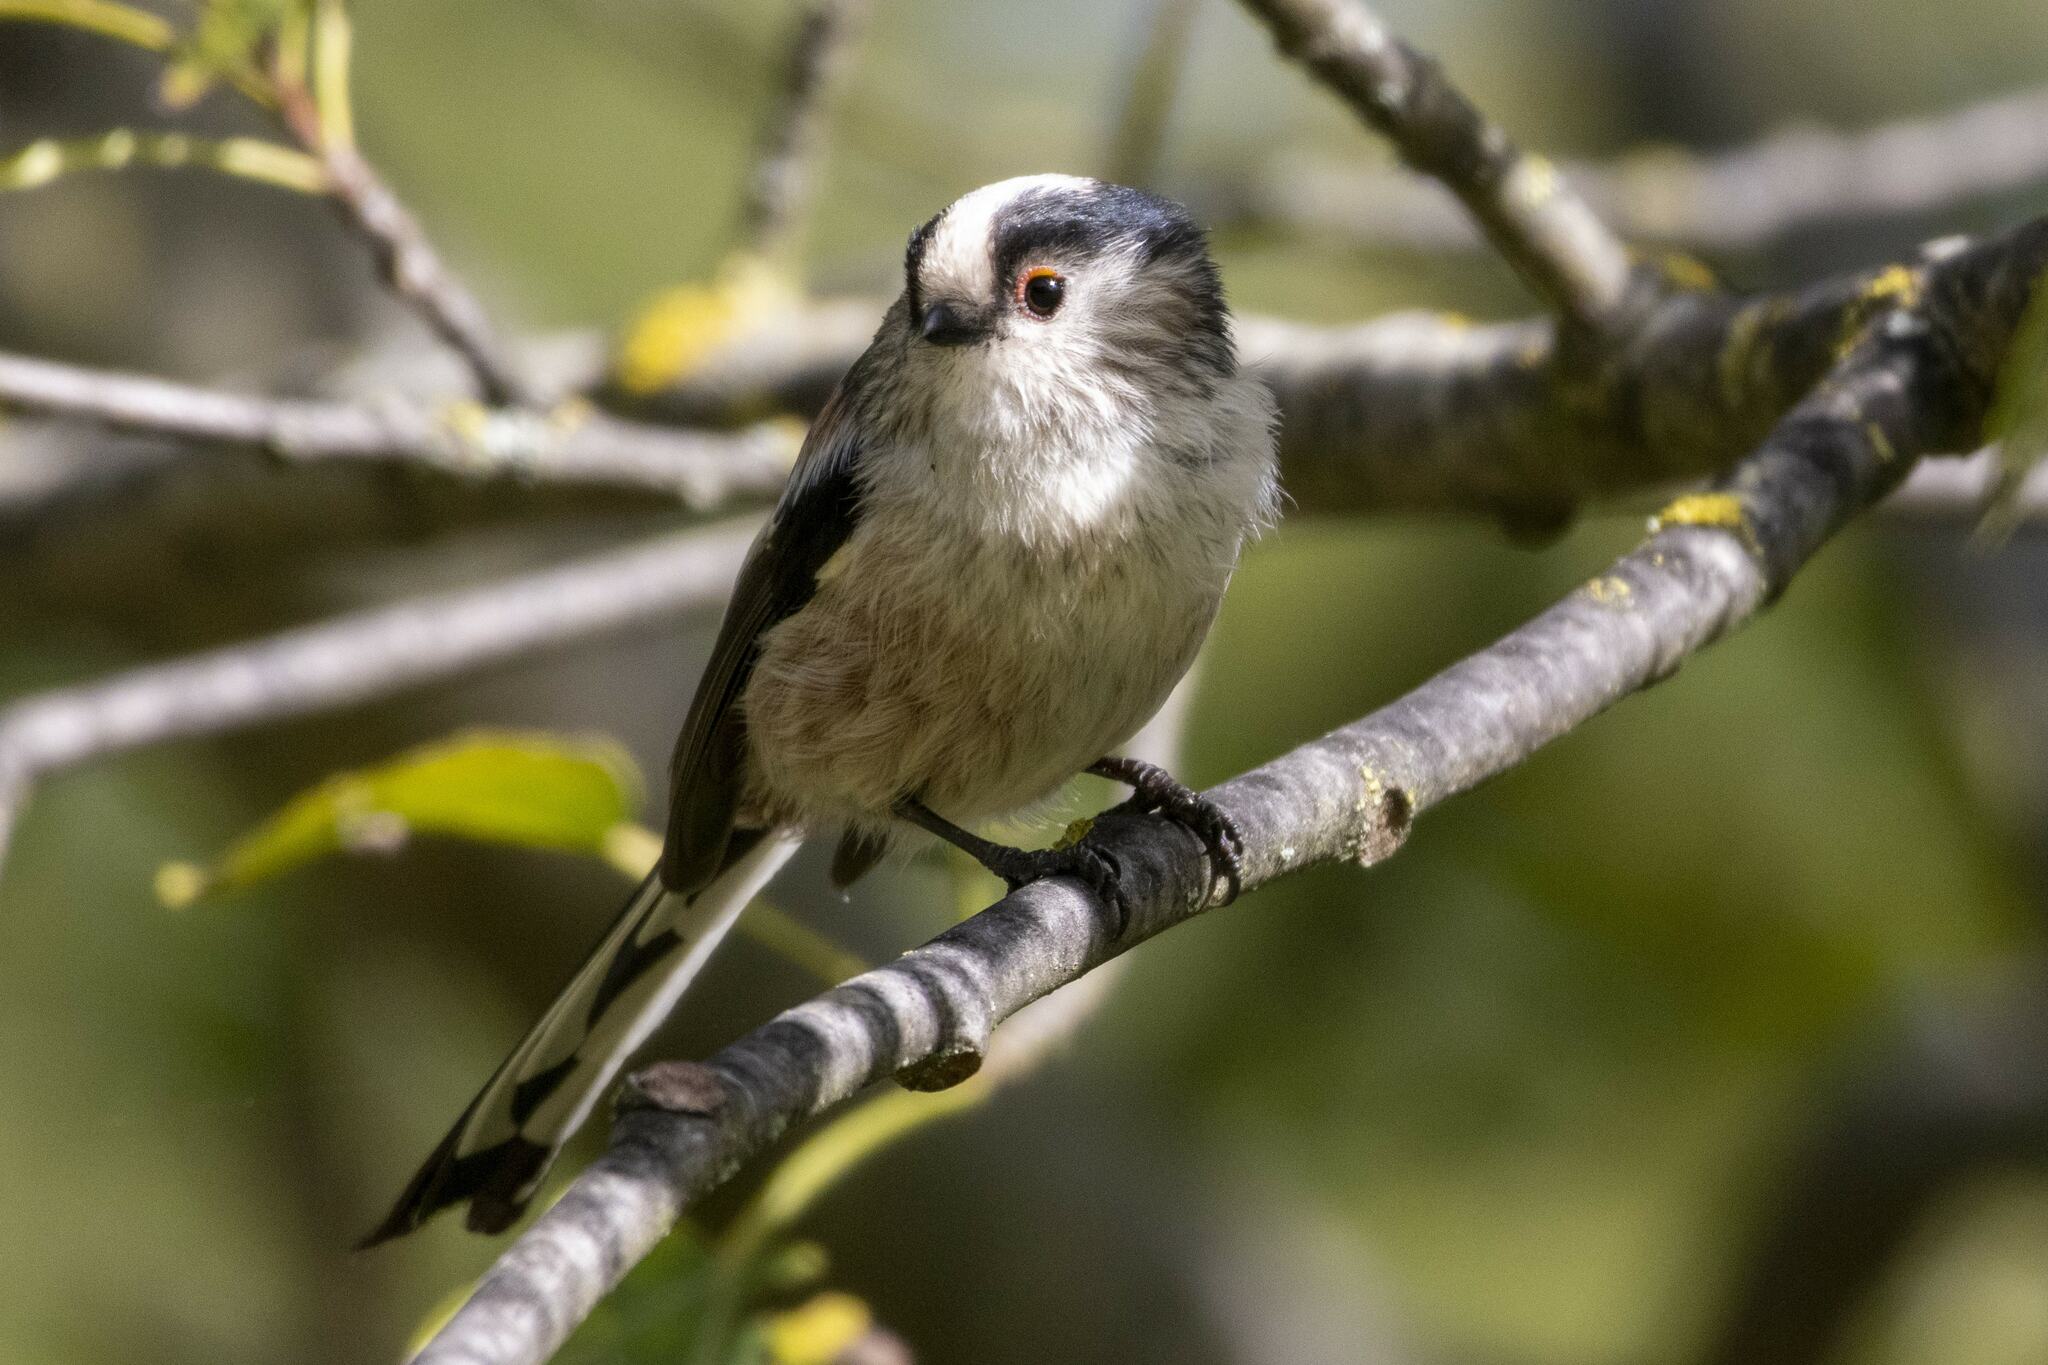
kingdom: Animalia
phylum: Chordata
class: Aves
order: Passeriformes
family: Aegithalidae
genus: Aegithalos
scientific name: Aegithalos caudatus
